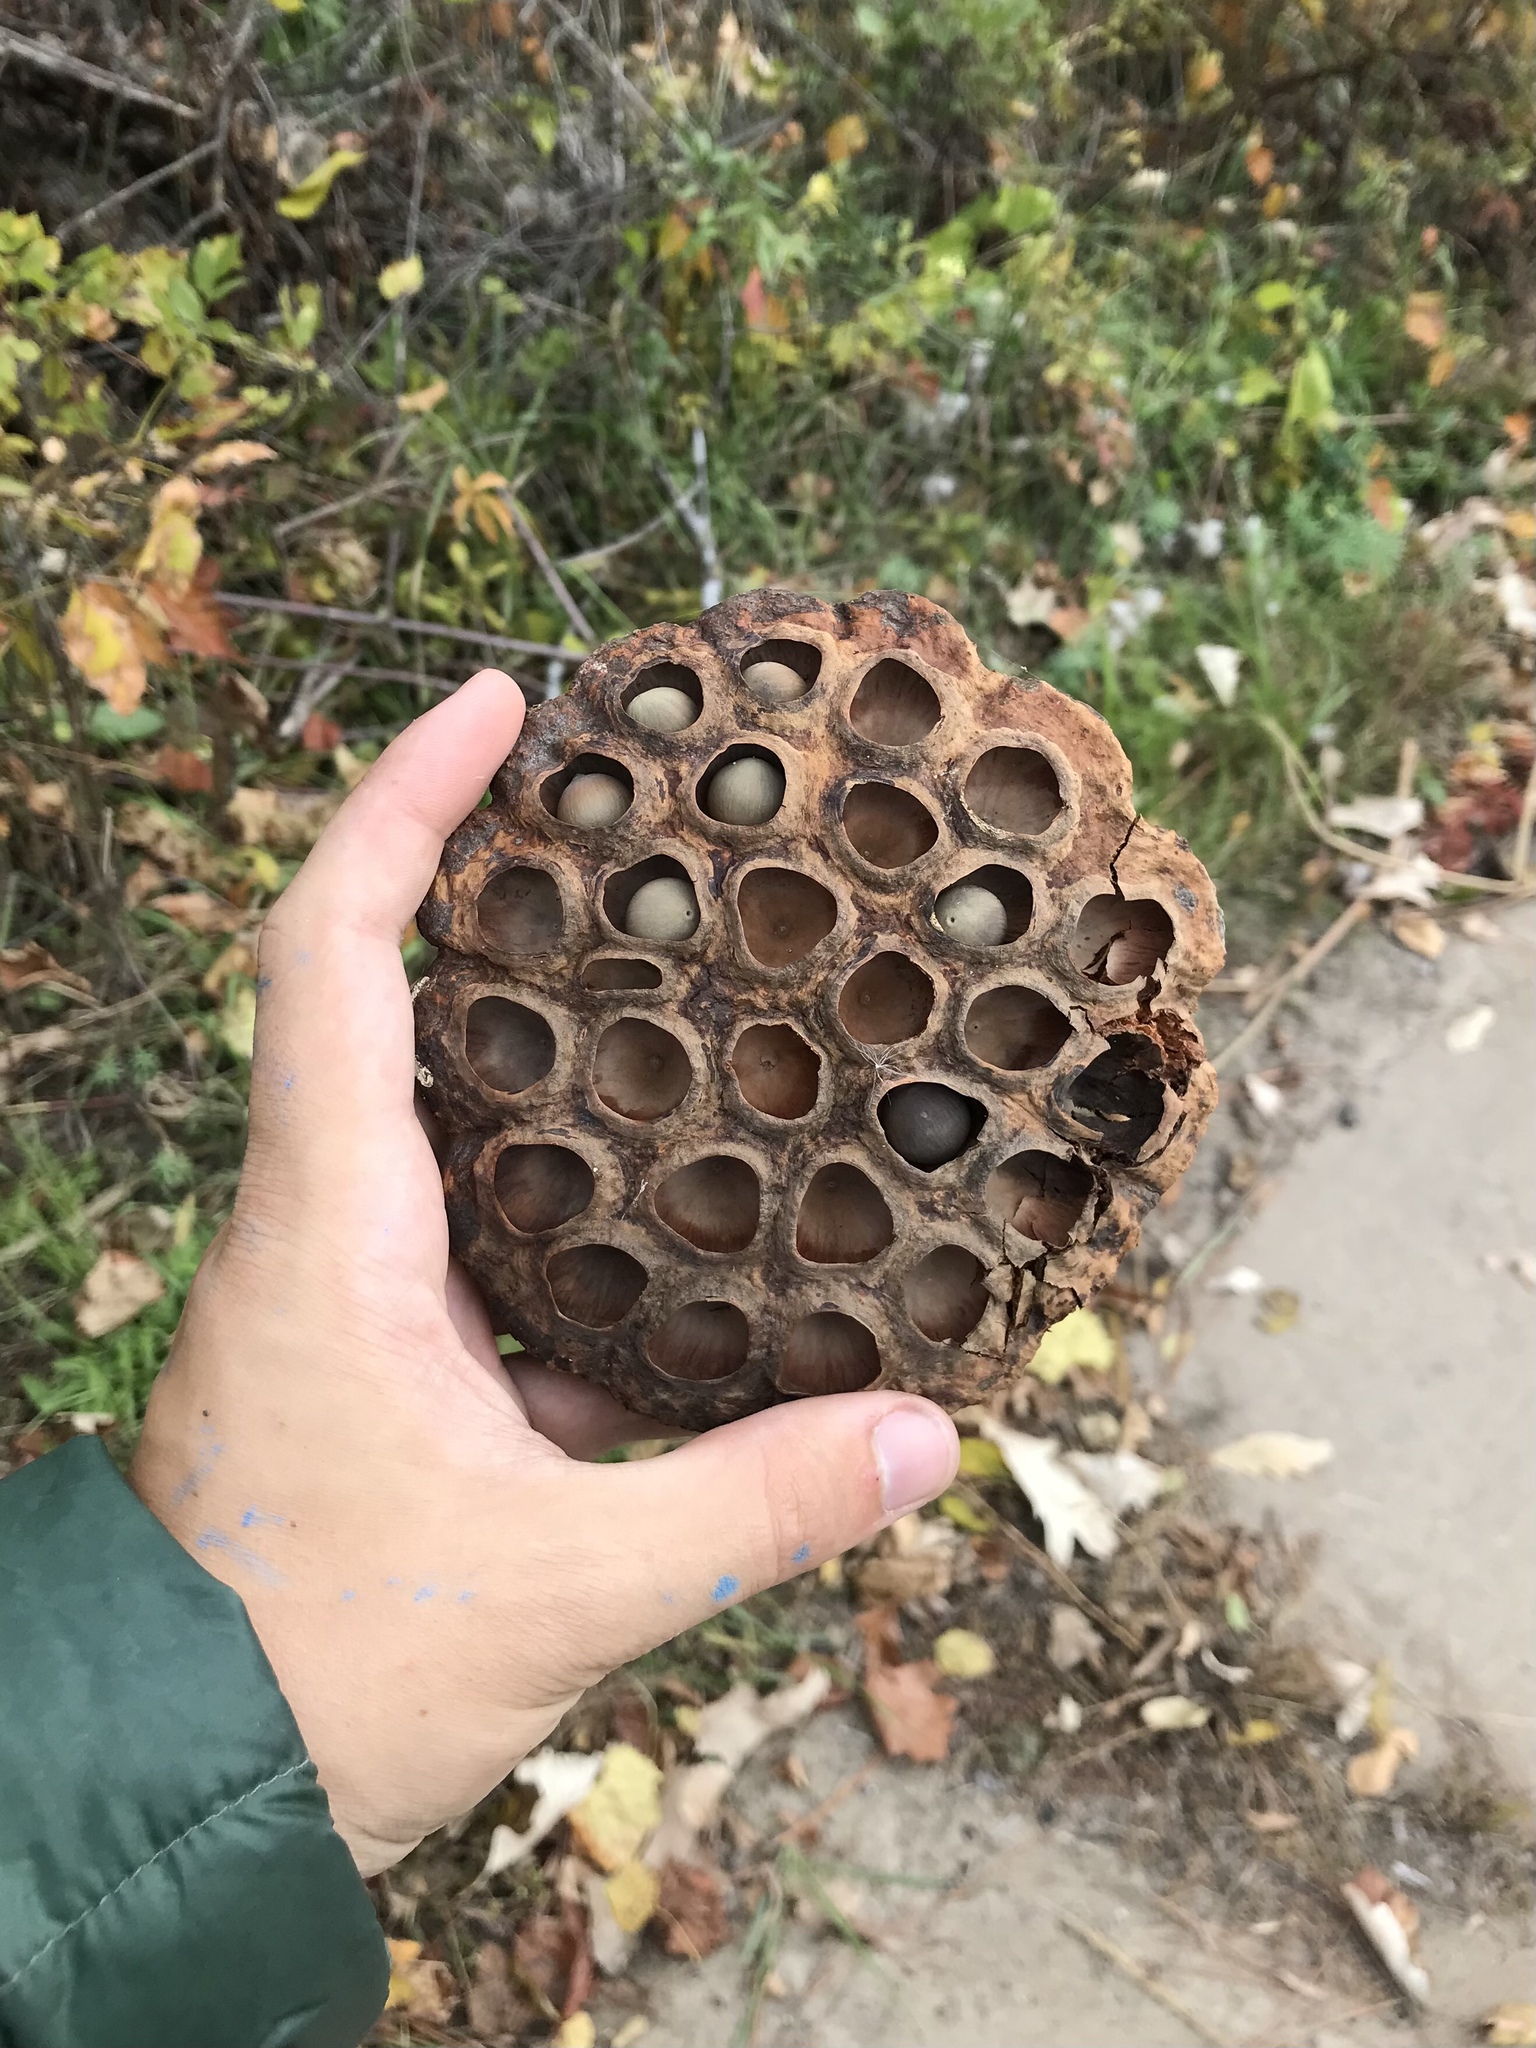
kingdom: Plantae
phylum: Tracheophyta
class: Magnoliopsida
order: Proteales
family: Nelumbonaceae
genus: Nelumbo
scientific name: Nelumbo lutea
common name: American lotus
